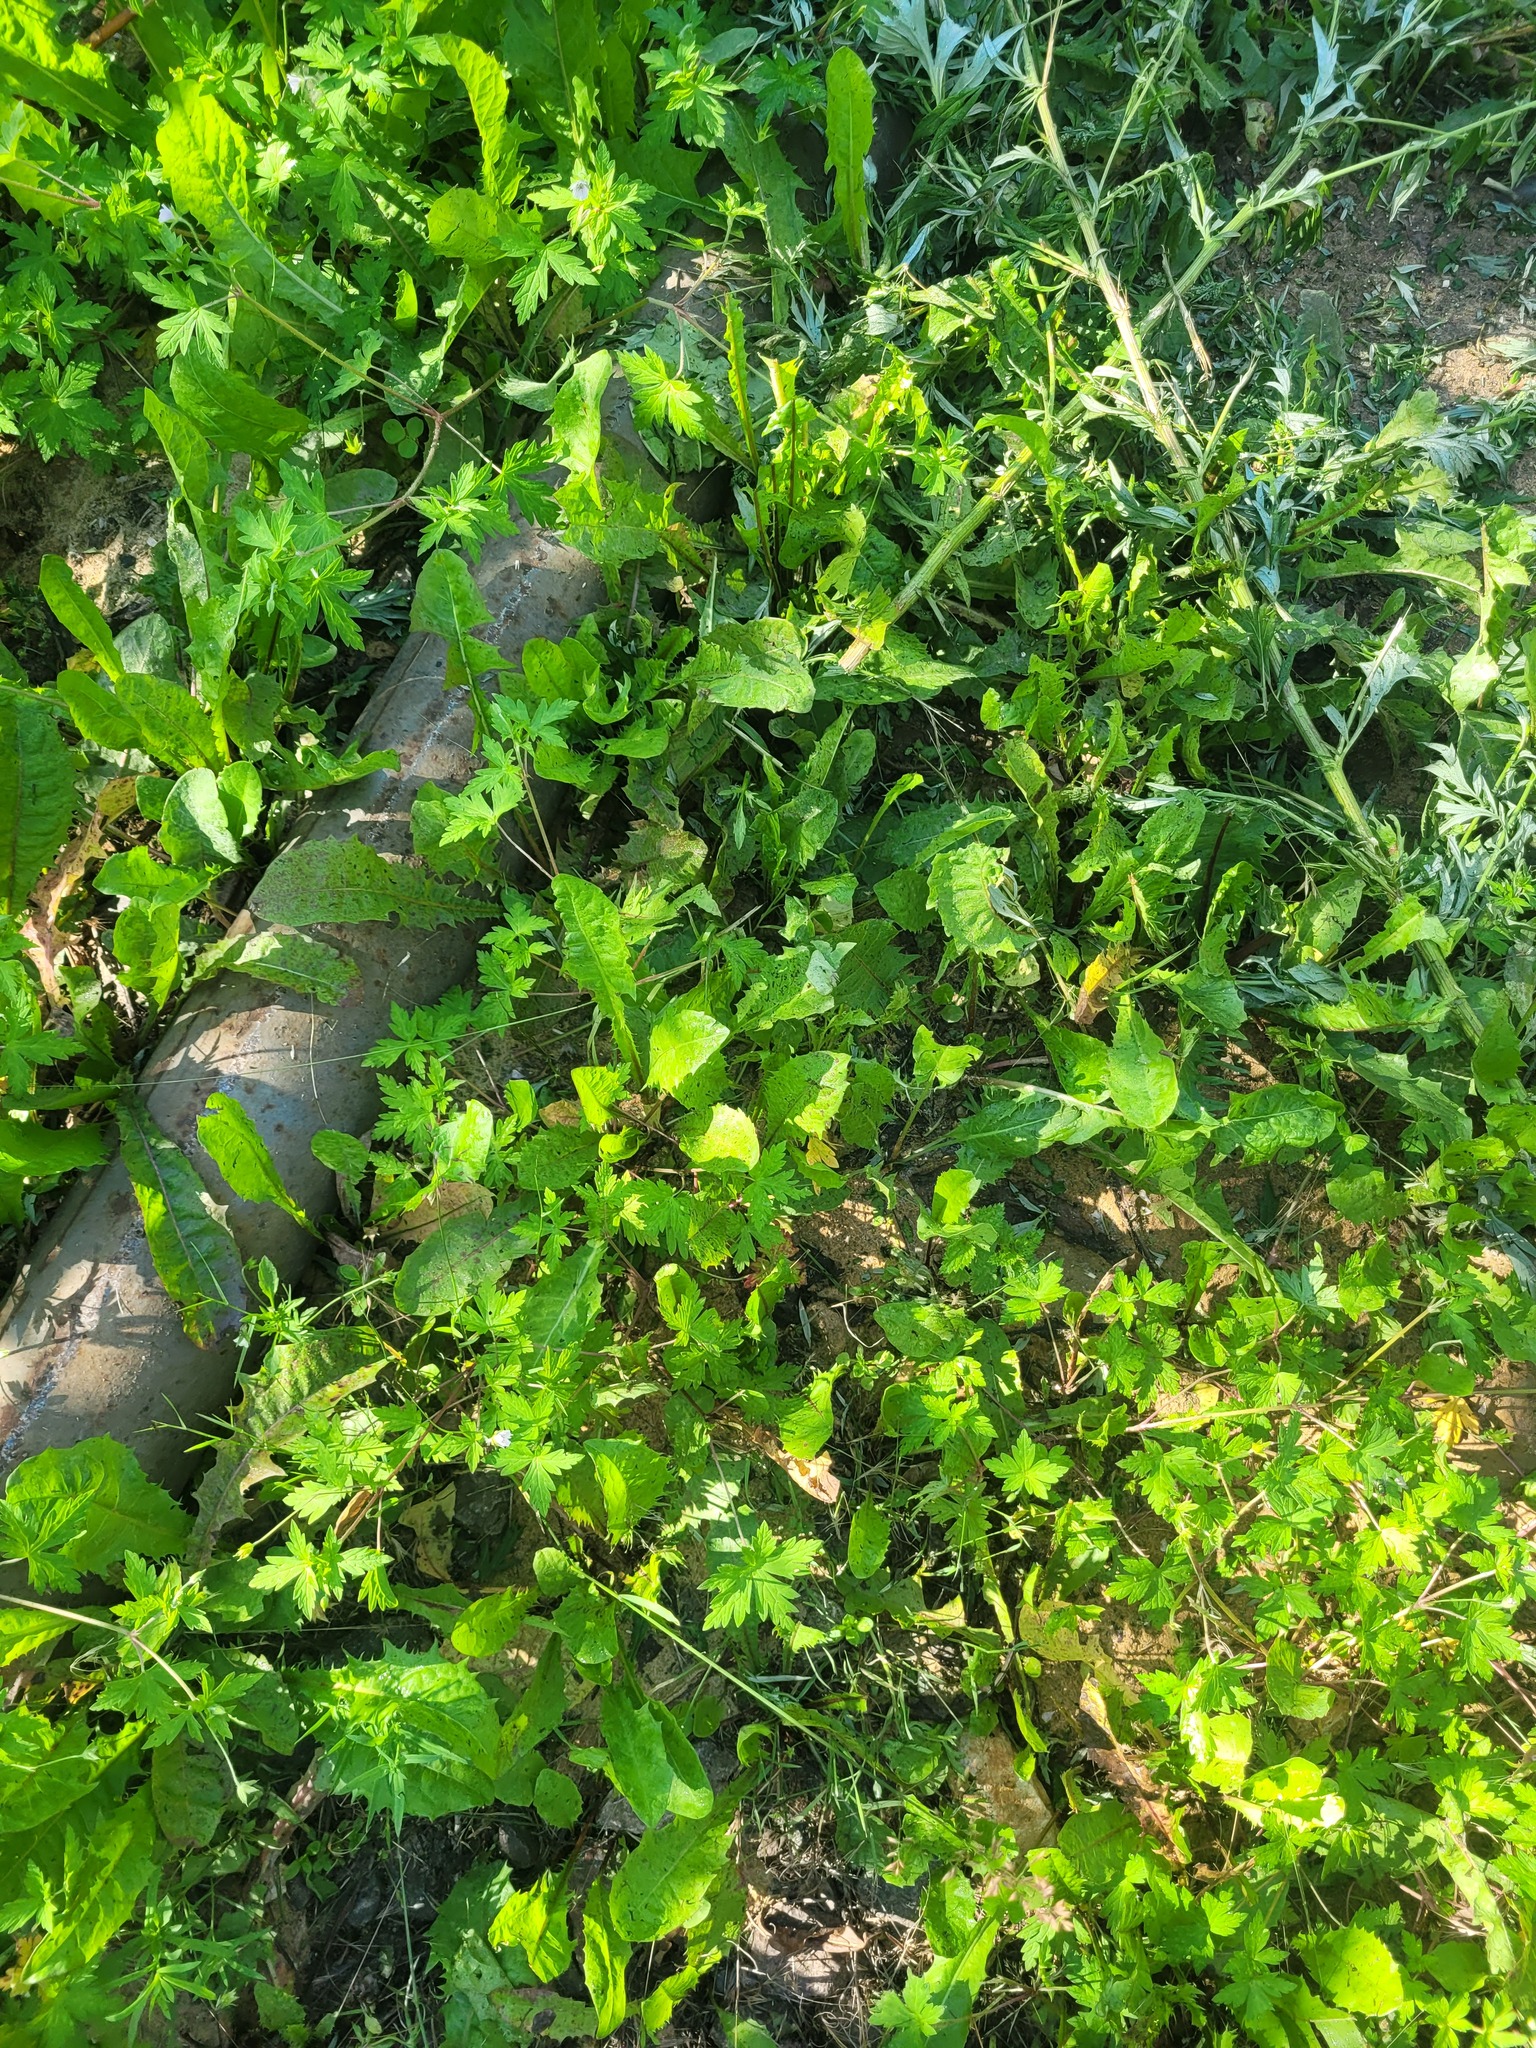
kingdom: Plantae
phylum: Tracheophyta
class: Magnoliopsida
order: Asterales
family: Asteraceae
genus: Taraxacum
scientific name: Taraxacum officinale
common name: Common dandelion
